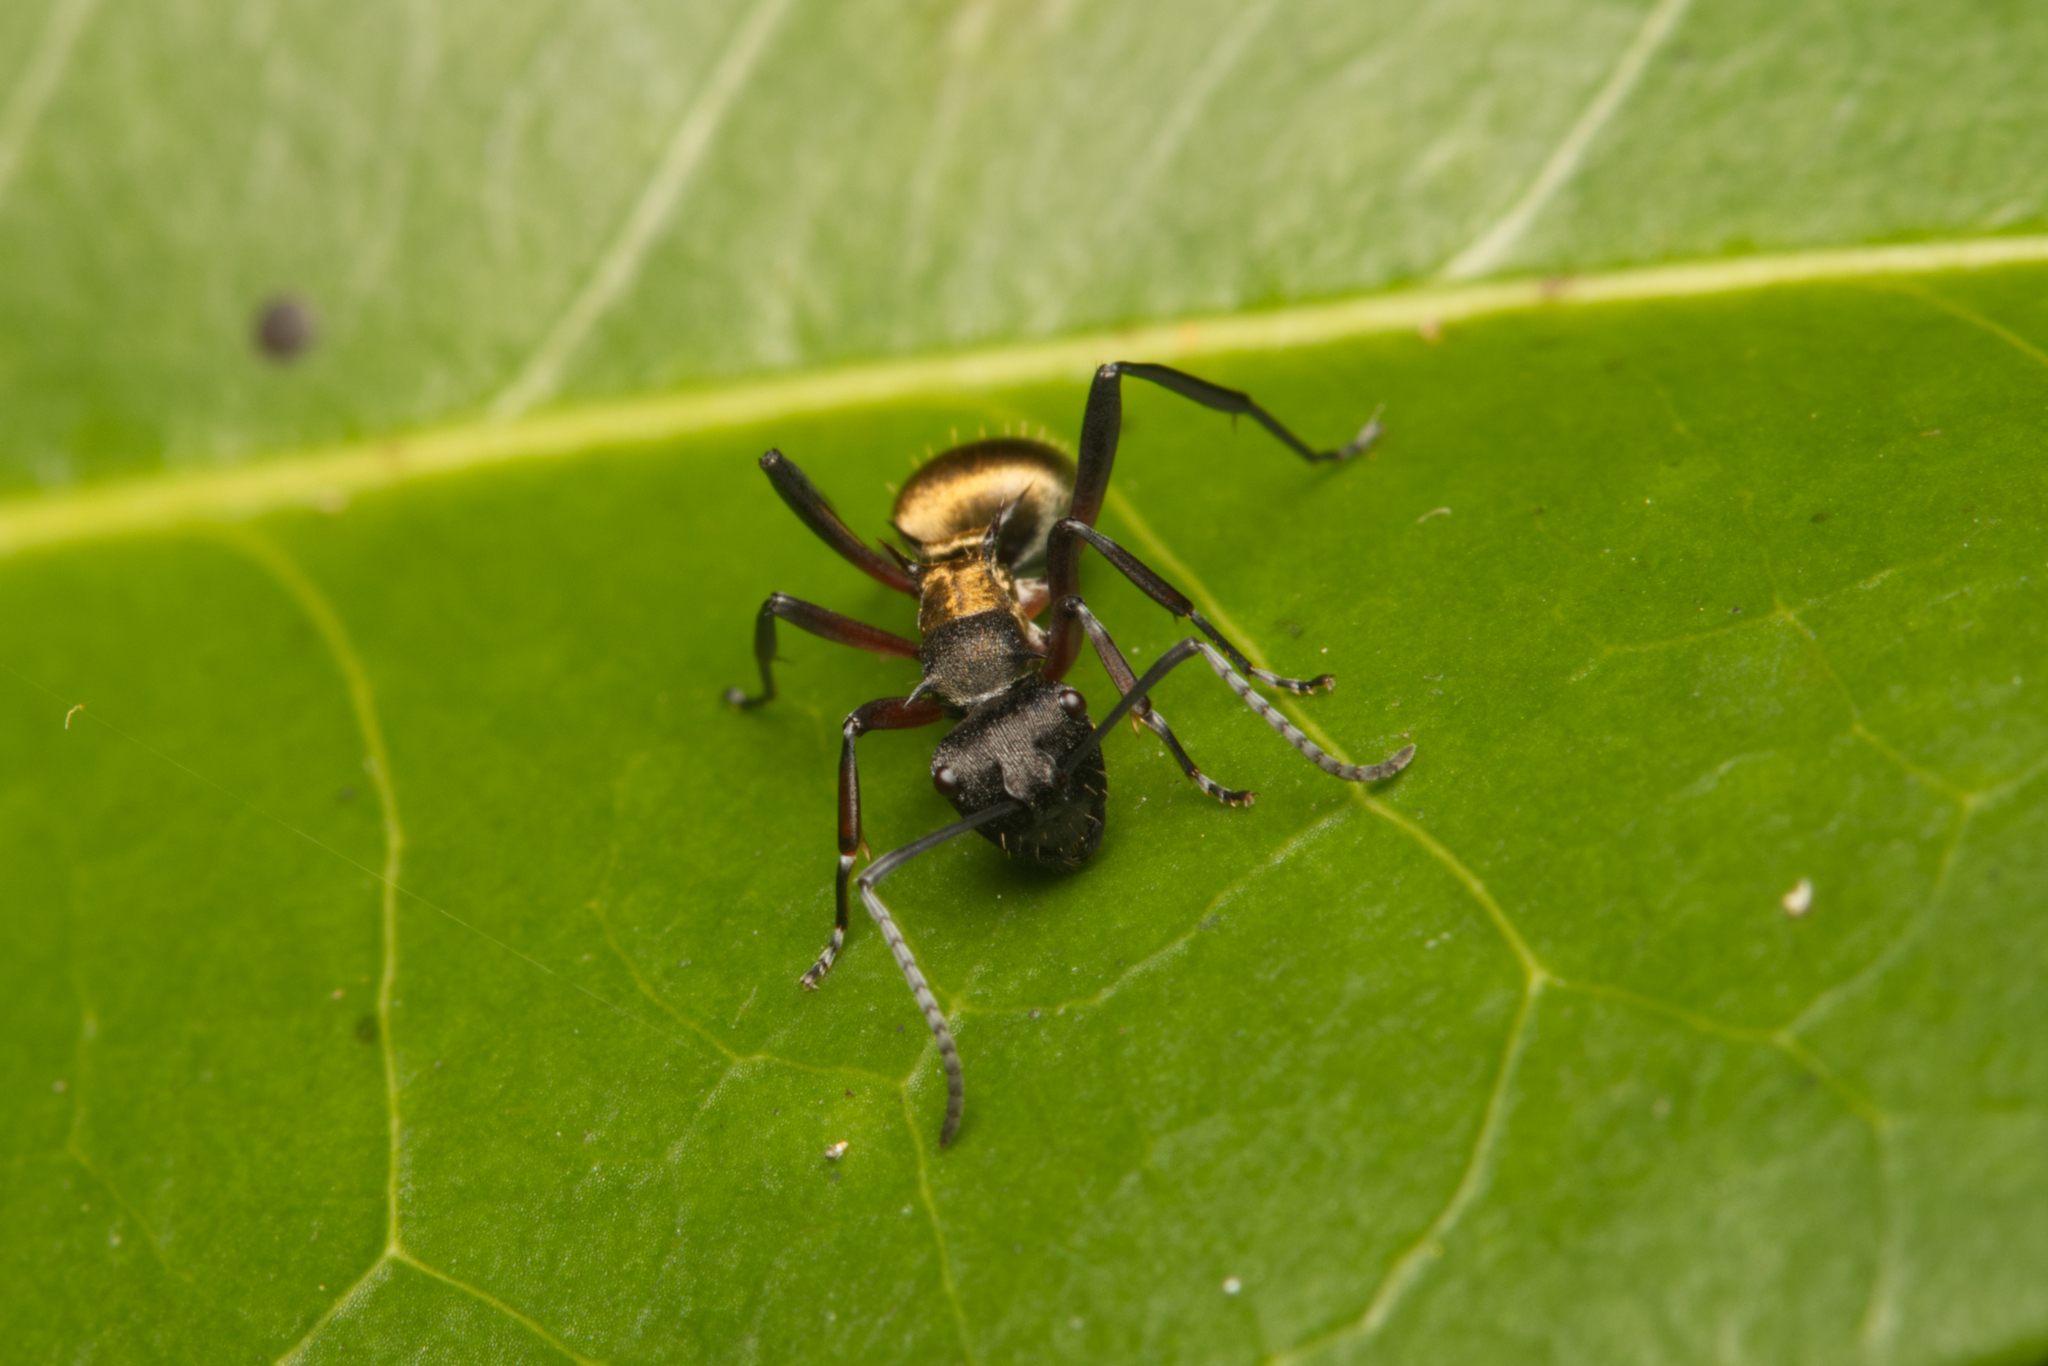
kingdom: Animalia
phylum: Arthropoda
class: Insecta
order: Hymenoptera
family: Formicidae
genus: Polyrhachis
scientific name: Polyrhachis rufifemur
